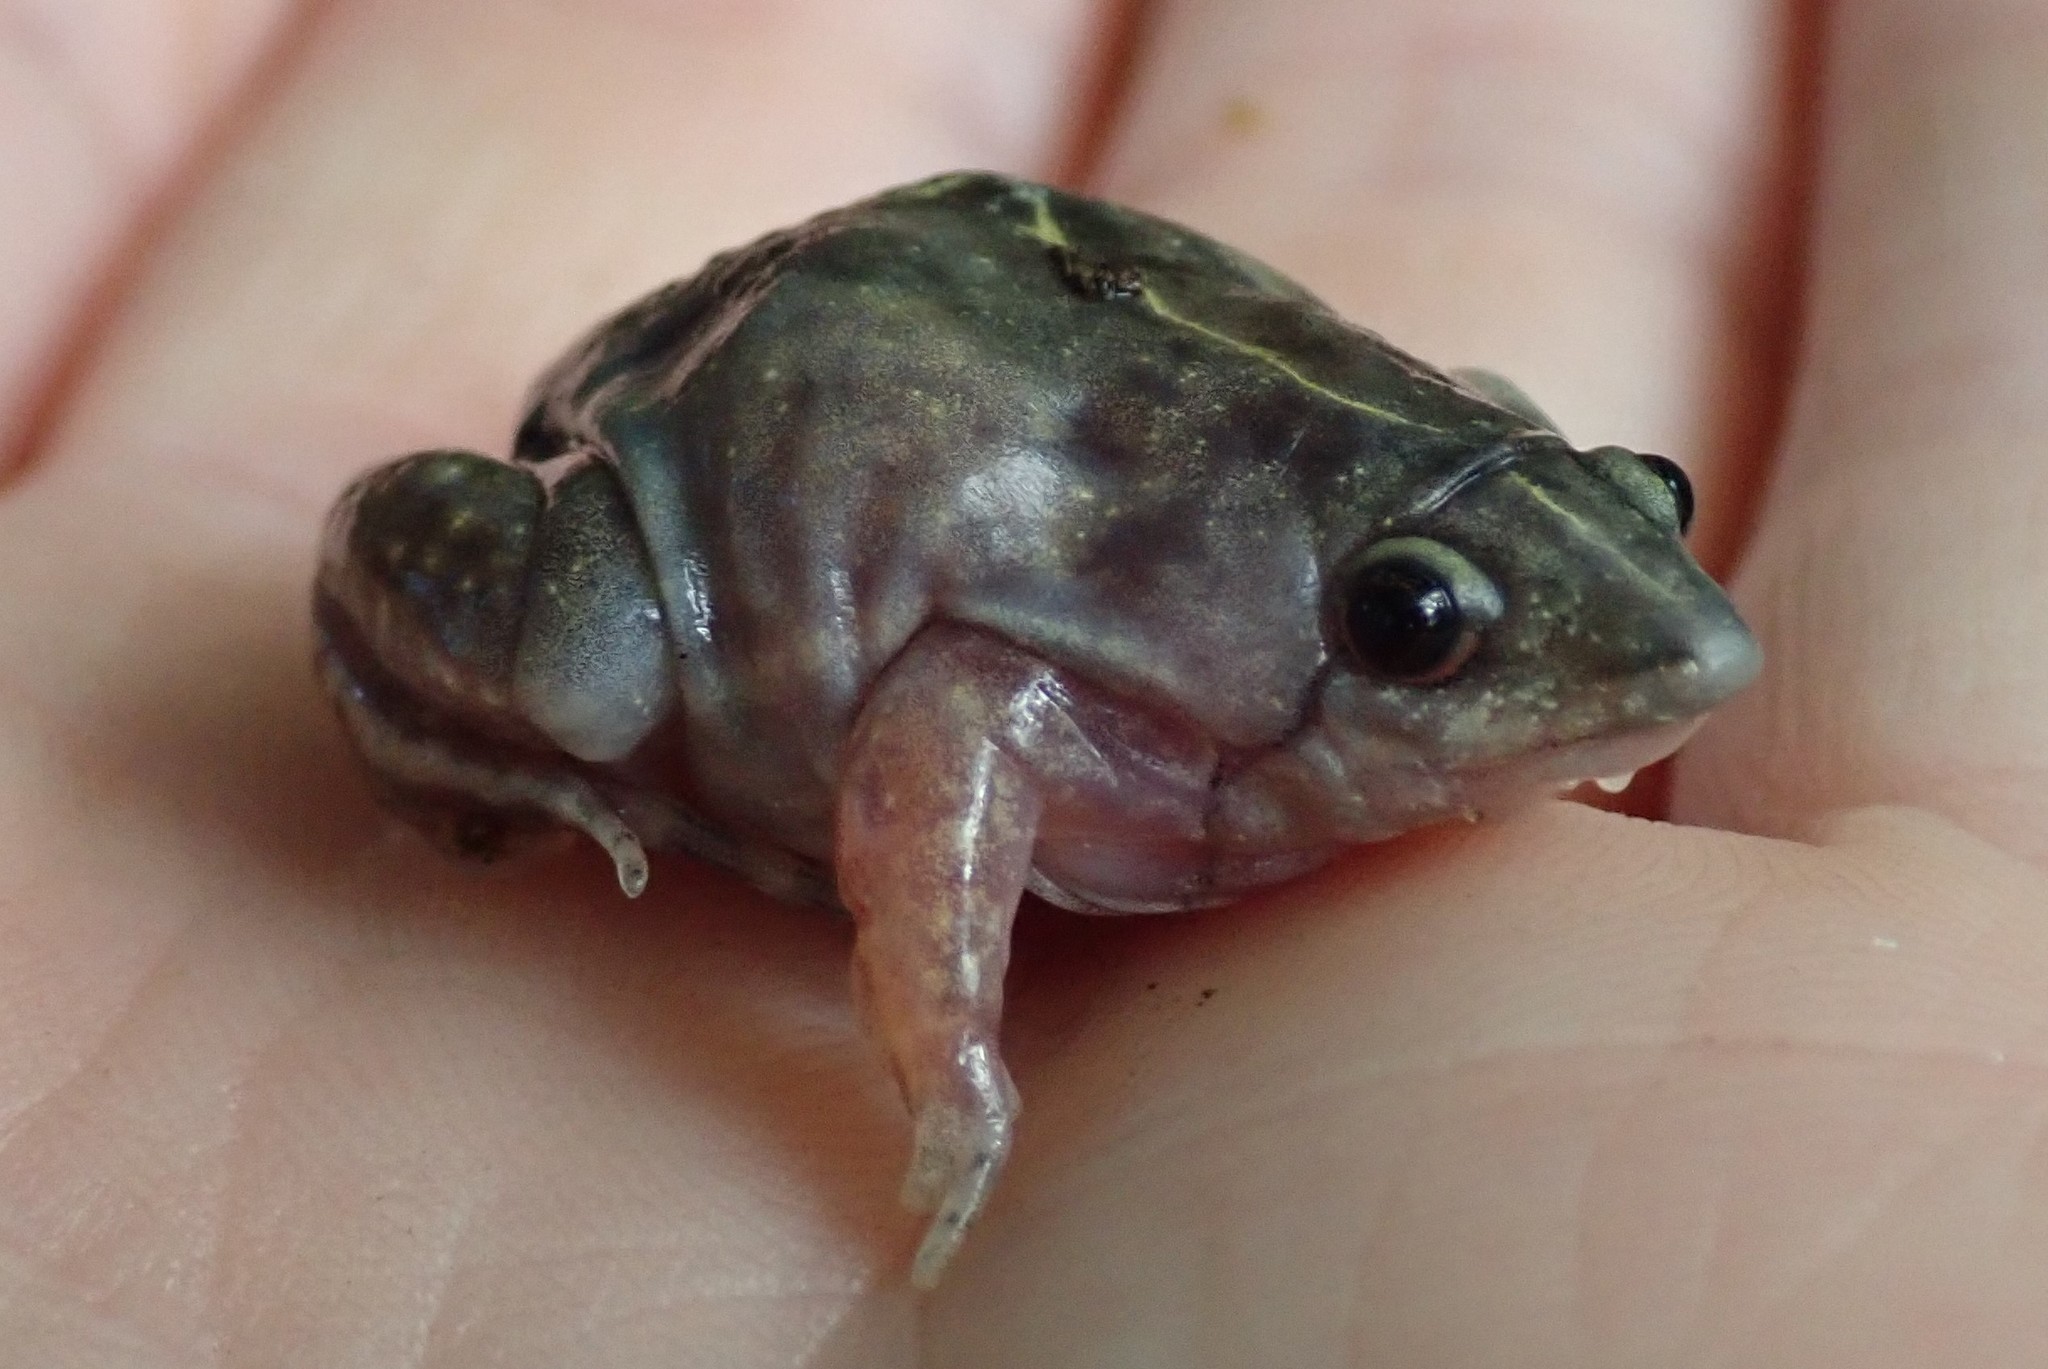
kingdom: Animalia
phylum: Chordata
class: Amphibia
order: Anura
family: Hemisotidae
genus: Hemisus
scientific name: Hemisus guineensis
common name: Guinea snout-burrower
